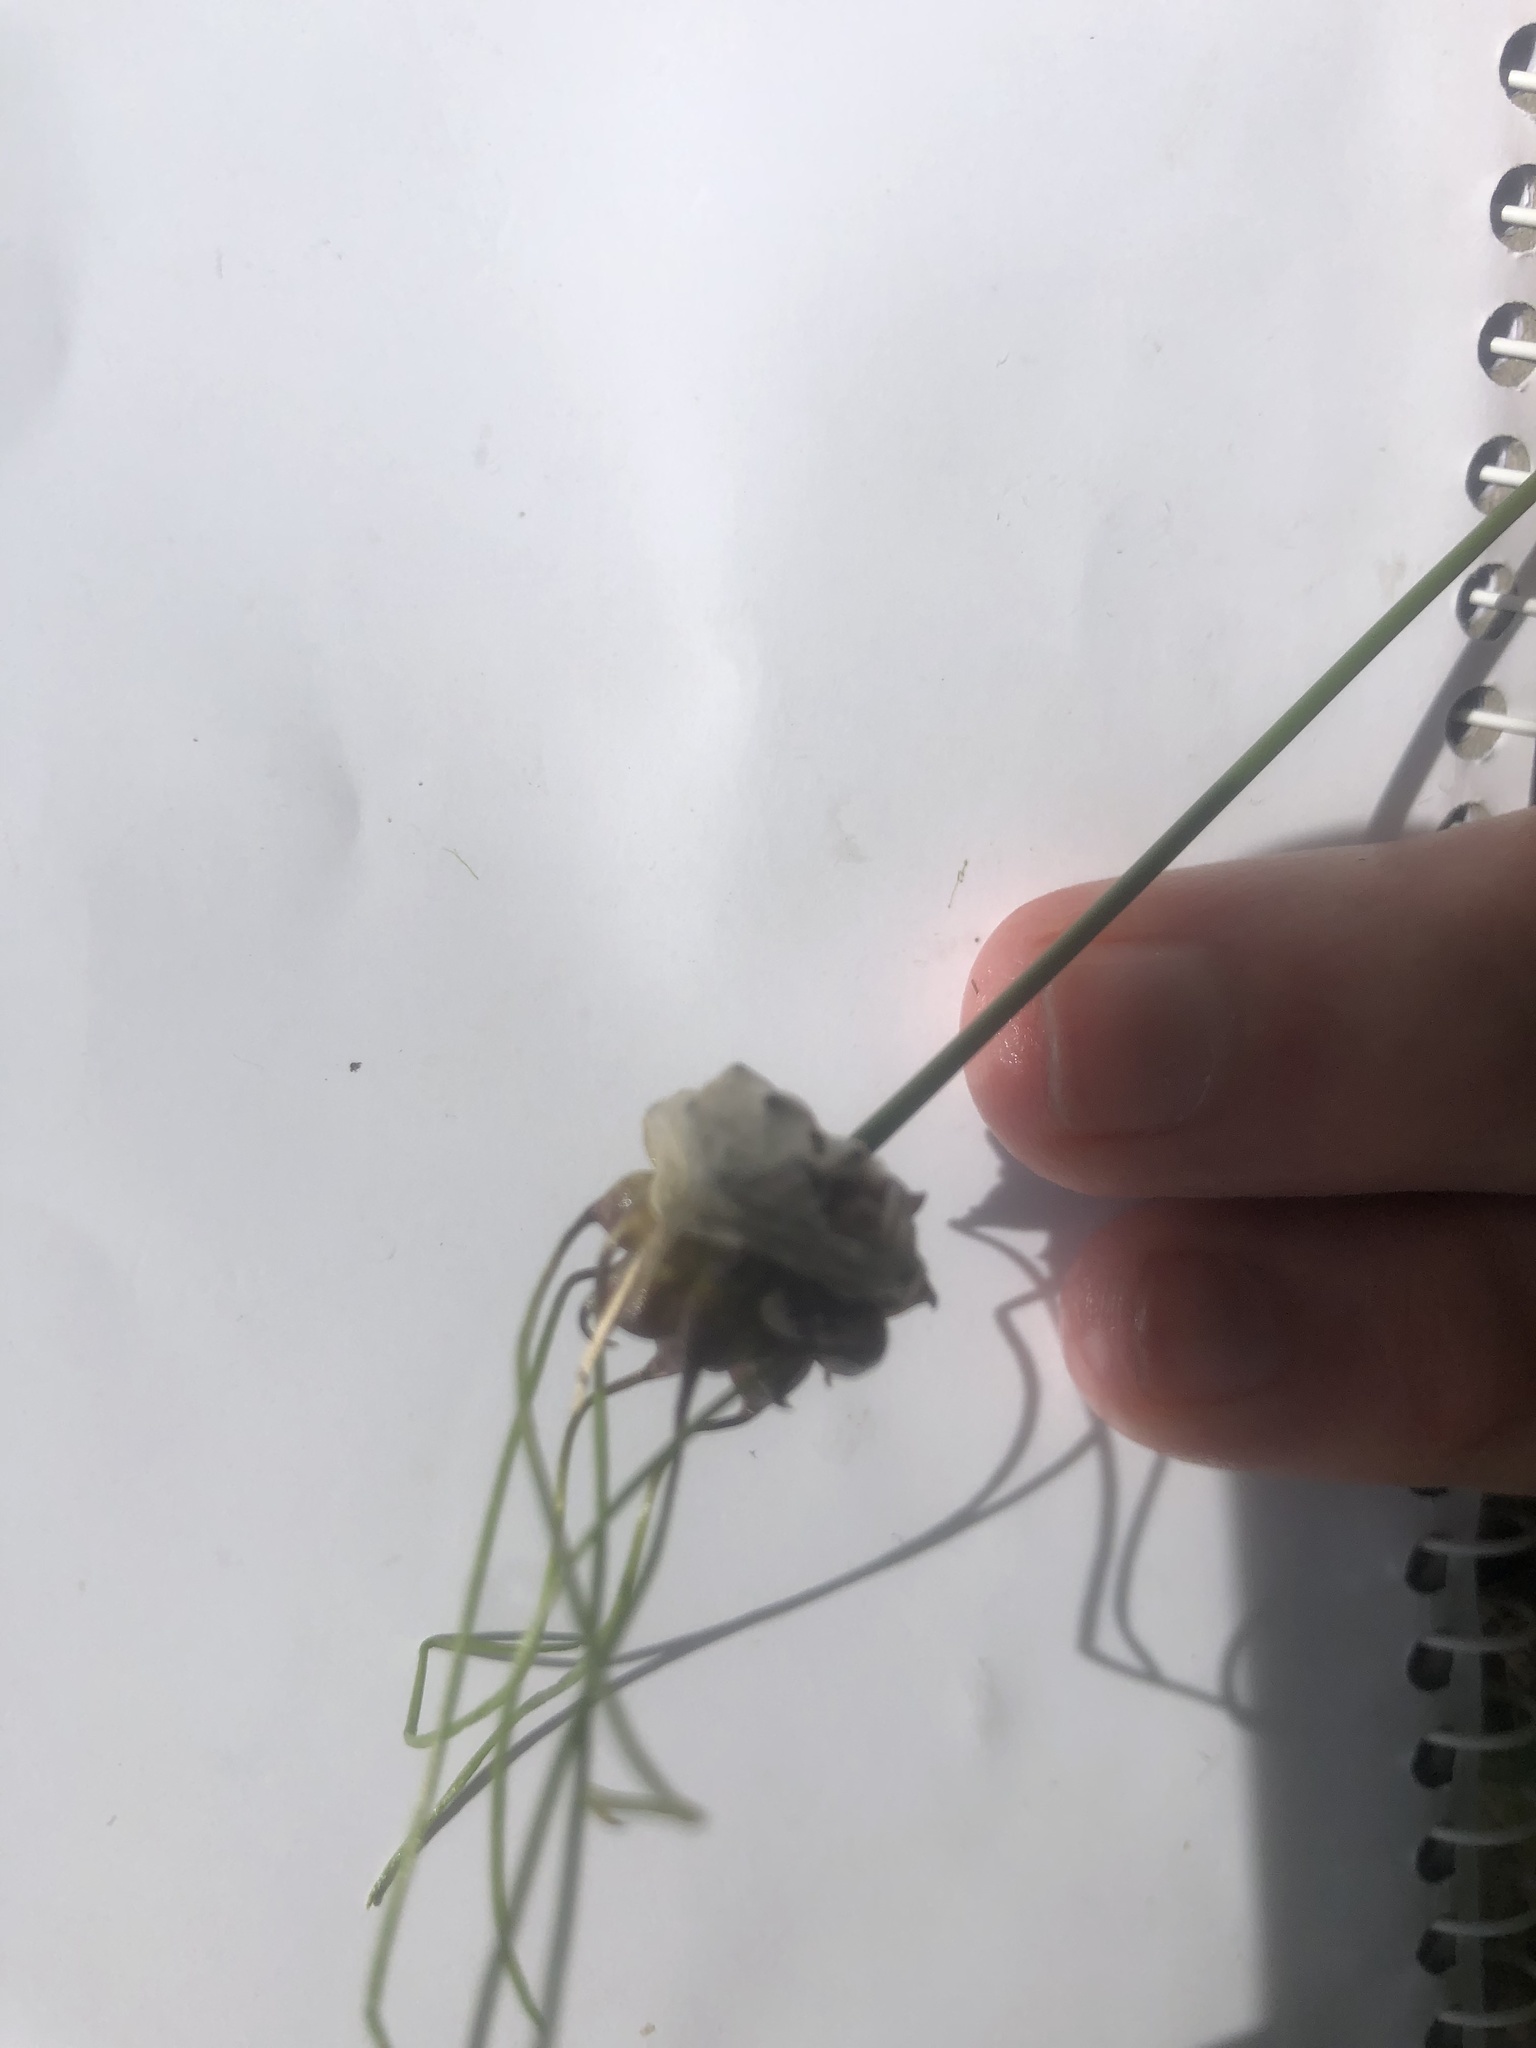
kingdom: Plantae
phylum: Tracheophyta
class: Liliopsida
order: Asparagales
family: Amaryllidaceae
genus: Allium
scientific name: Allium vineale
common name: Crow garlic
